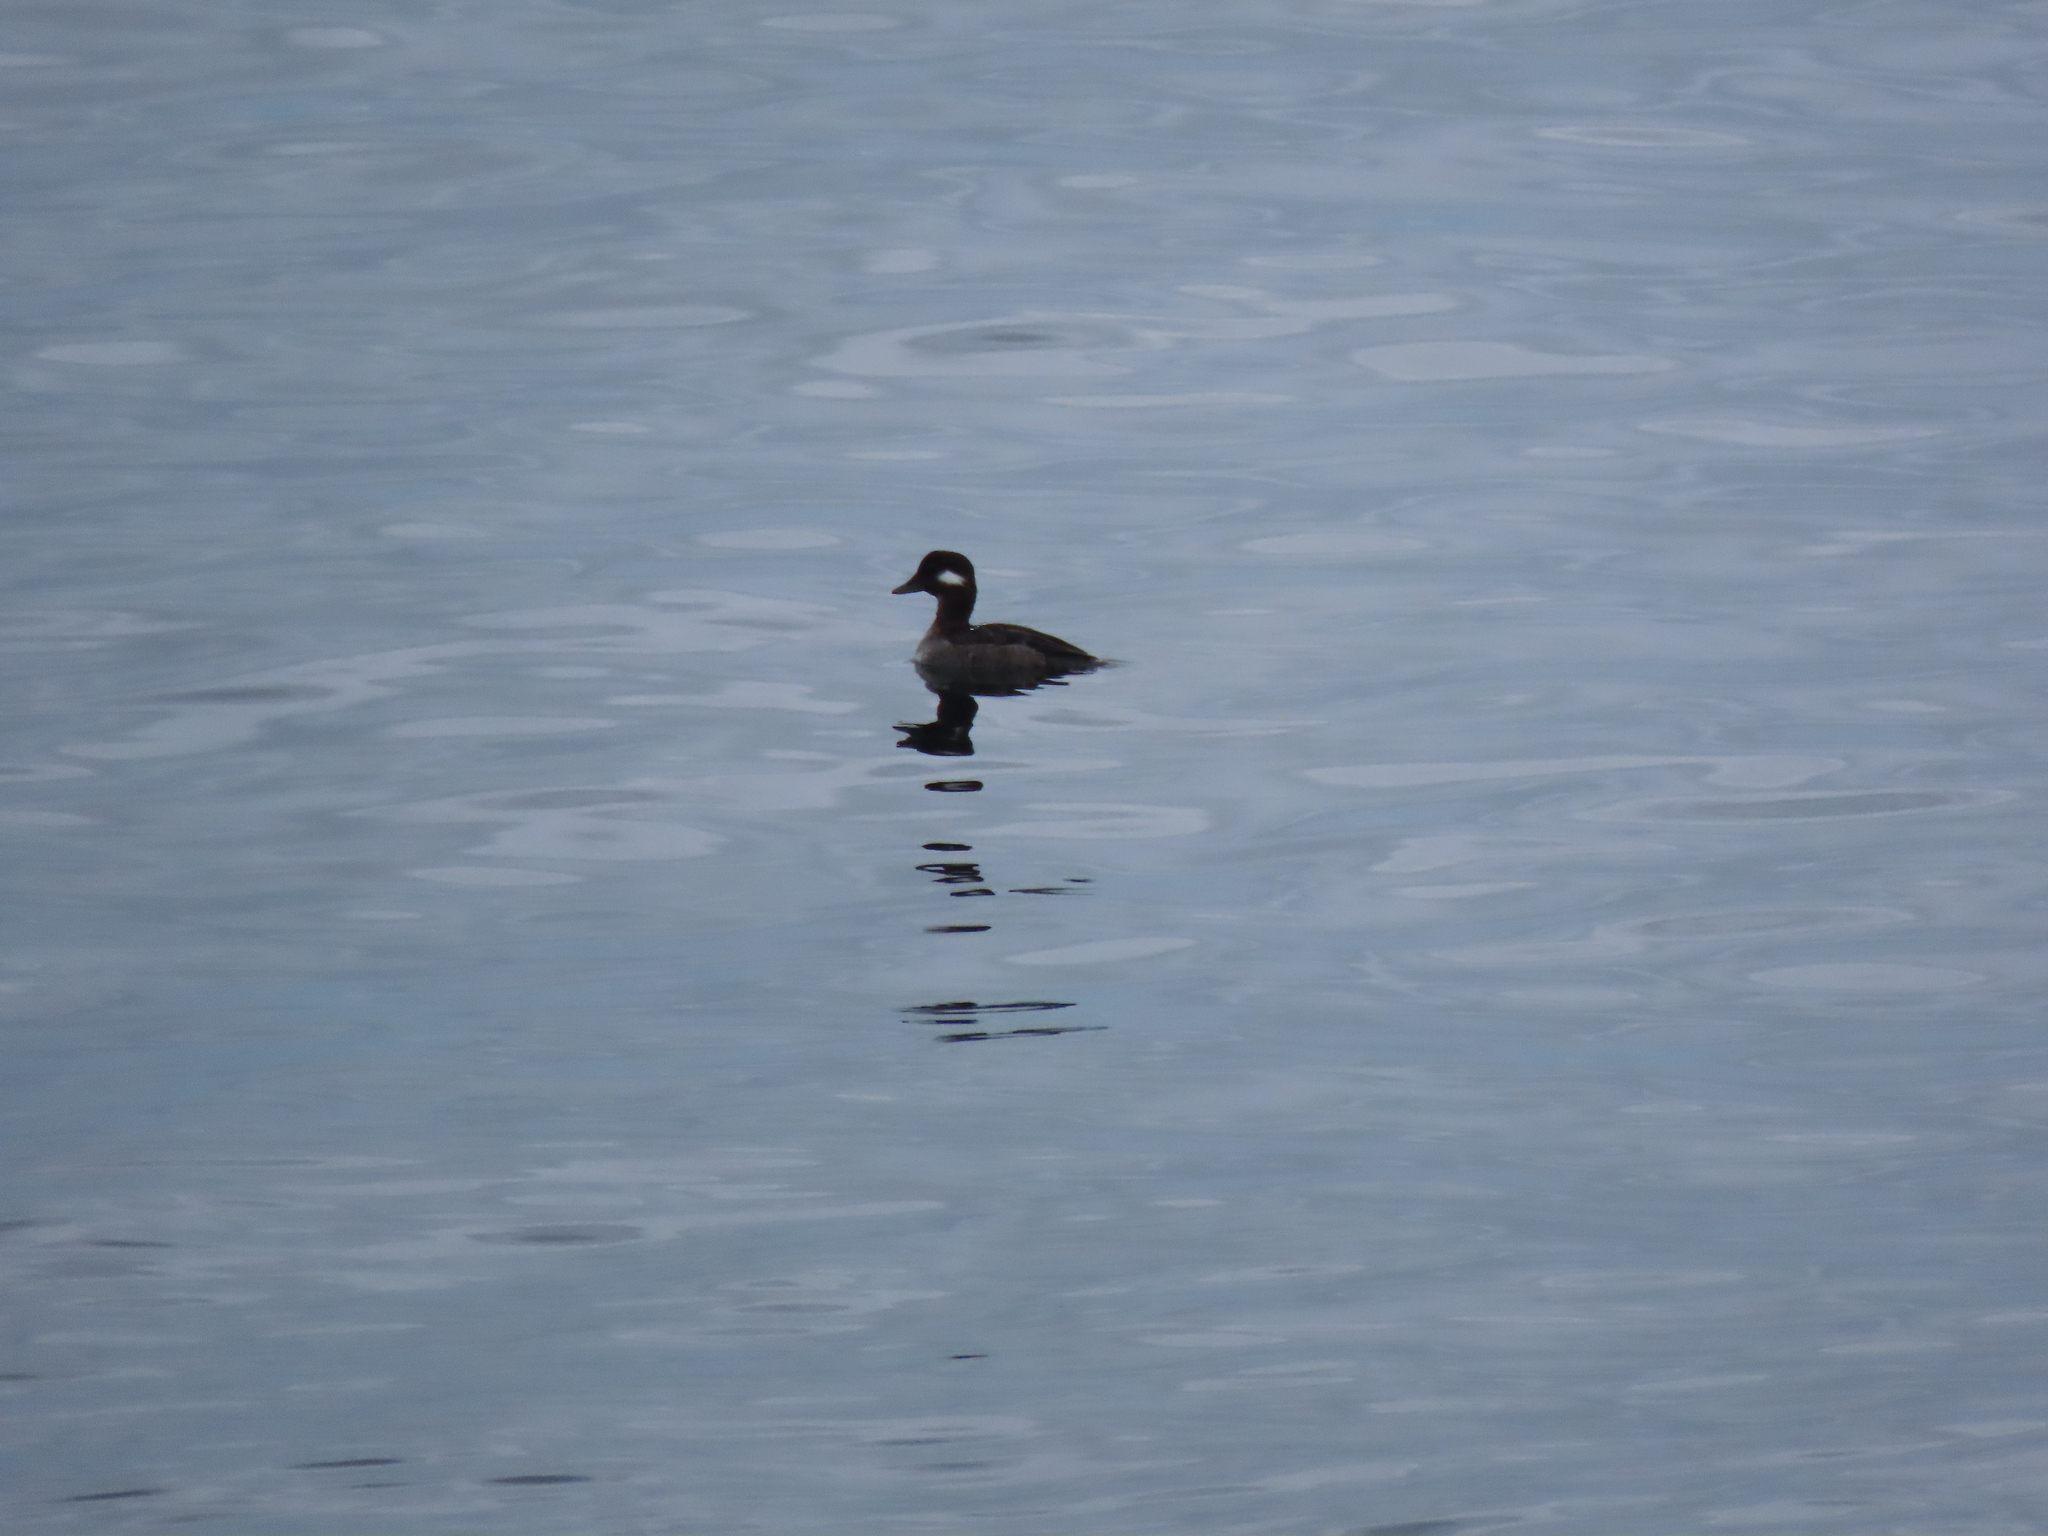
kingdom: Animalia
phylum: Chordata
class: Aves
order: Anseriformes
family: Anatidae
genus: Bucephala
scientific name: Bucephala albeola
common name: Bufflehead
